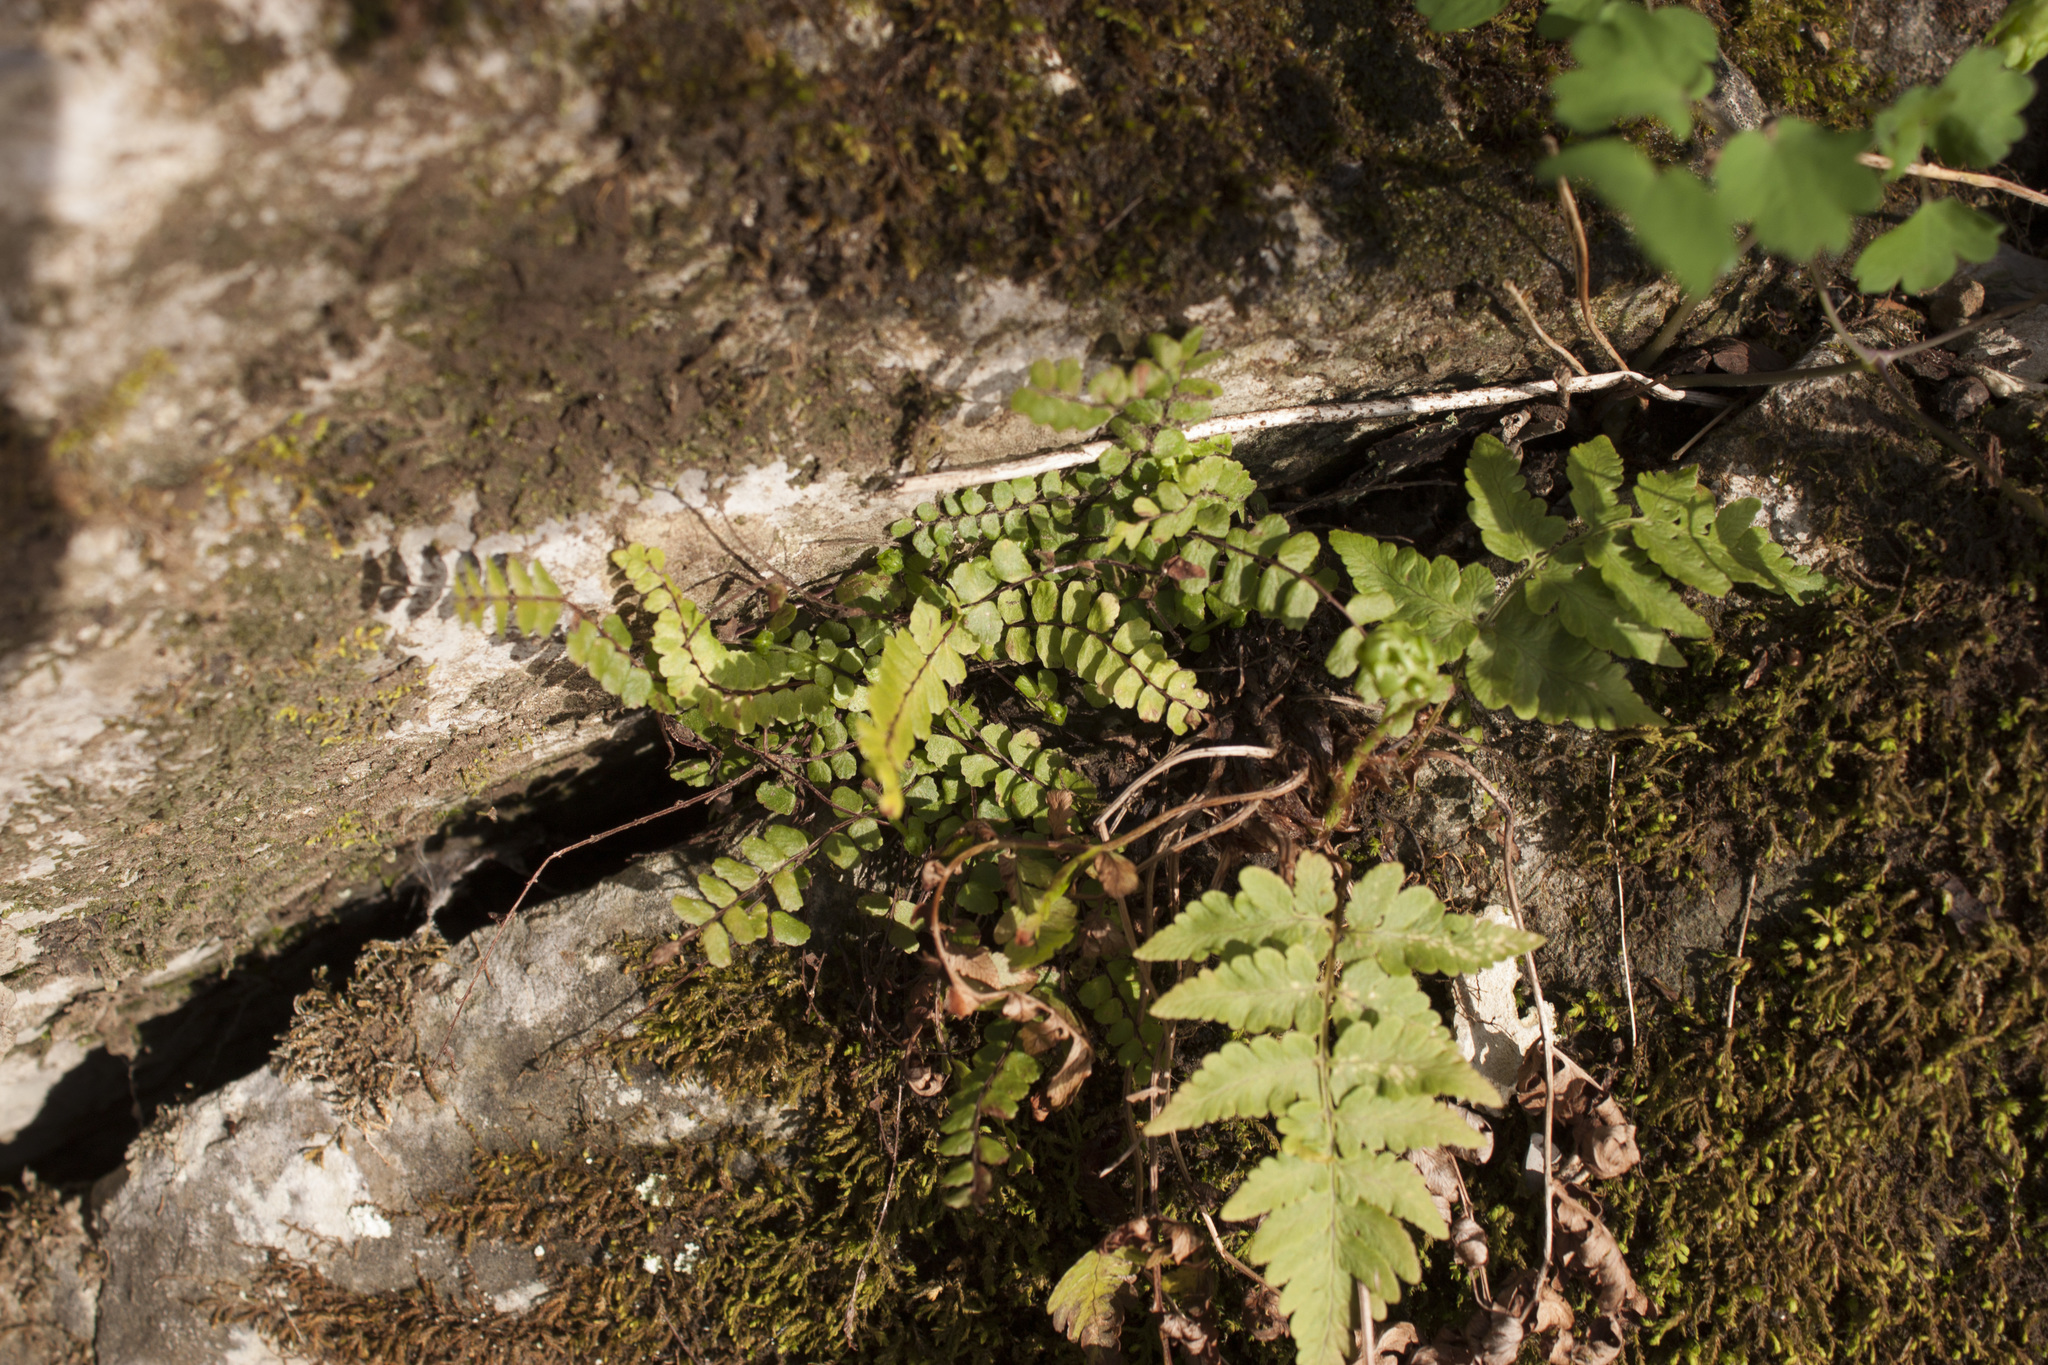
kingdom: Plantae
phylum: Tracheophyta
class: Polypodiopsida
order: Polypodiales
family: Aspleniaceae
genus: Asplenium
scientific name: Asplenium trichomanes
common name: Maidenhair spleenwort
